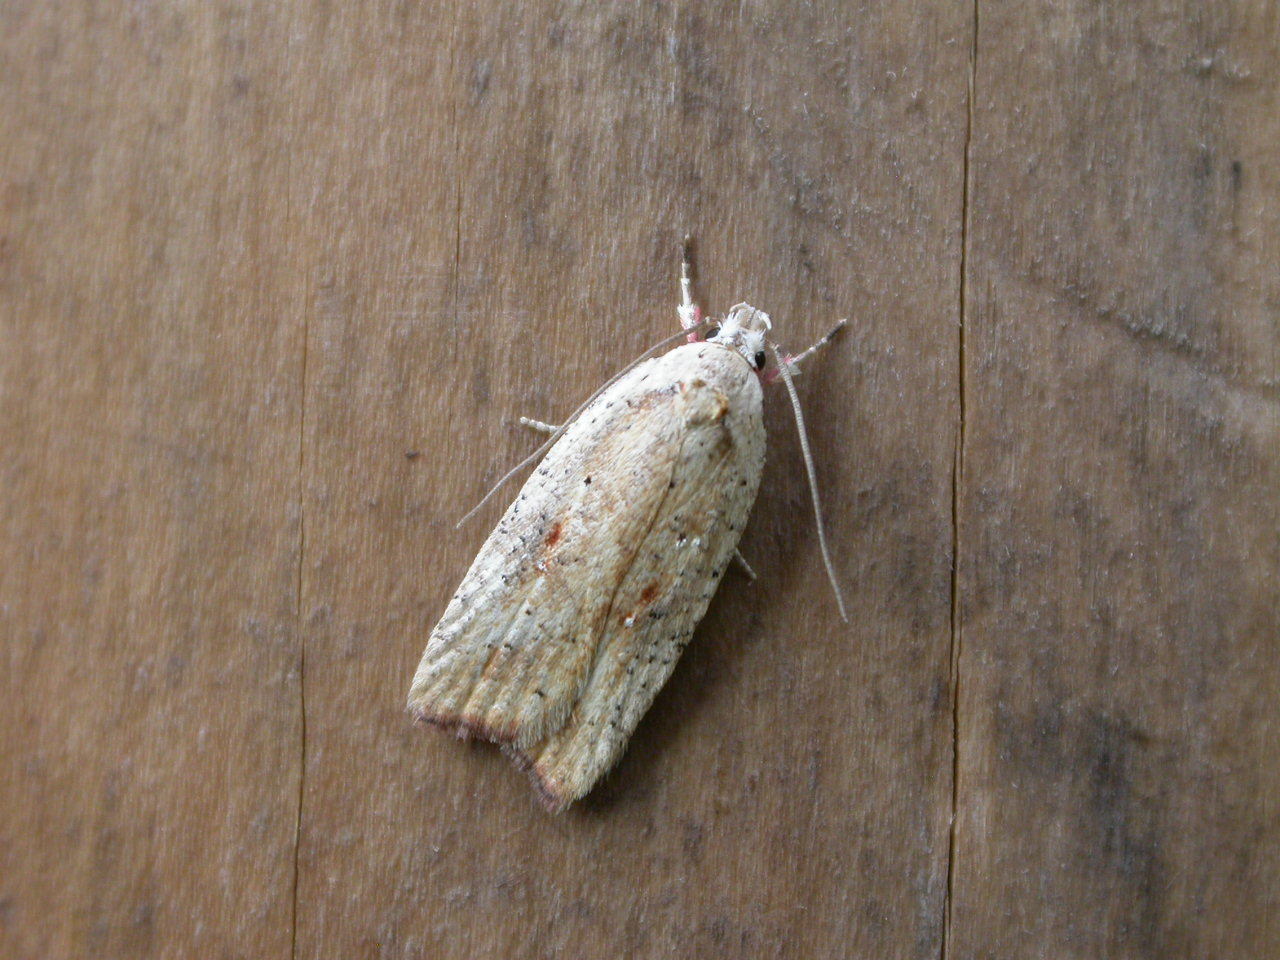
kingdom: Animalia
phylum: Arthropoda
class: Insecta
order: Lepidoptera
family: Depressariidae
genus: Agonopterix
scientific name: Agonopterix nervosa
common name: Gorse tip moth
